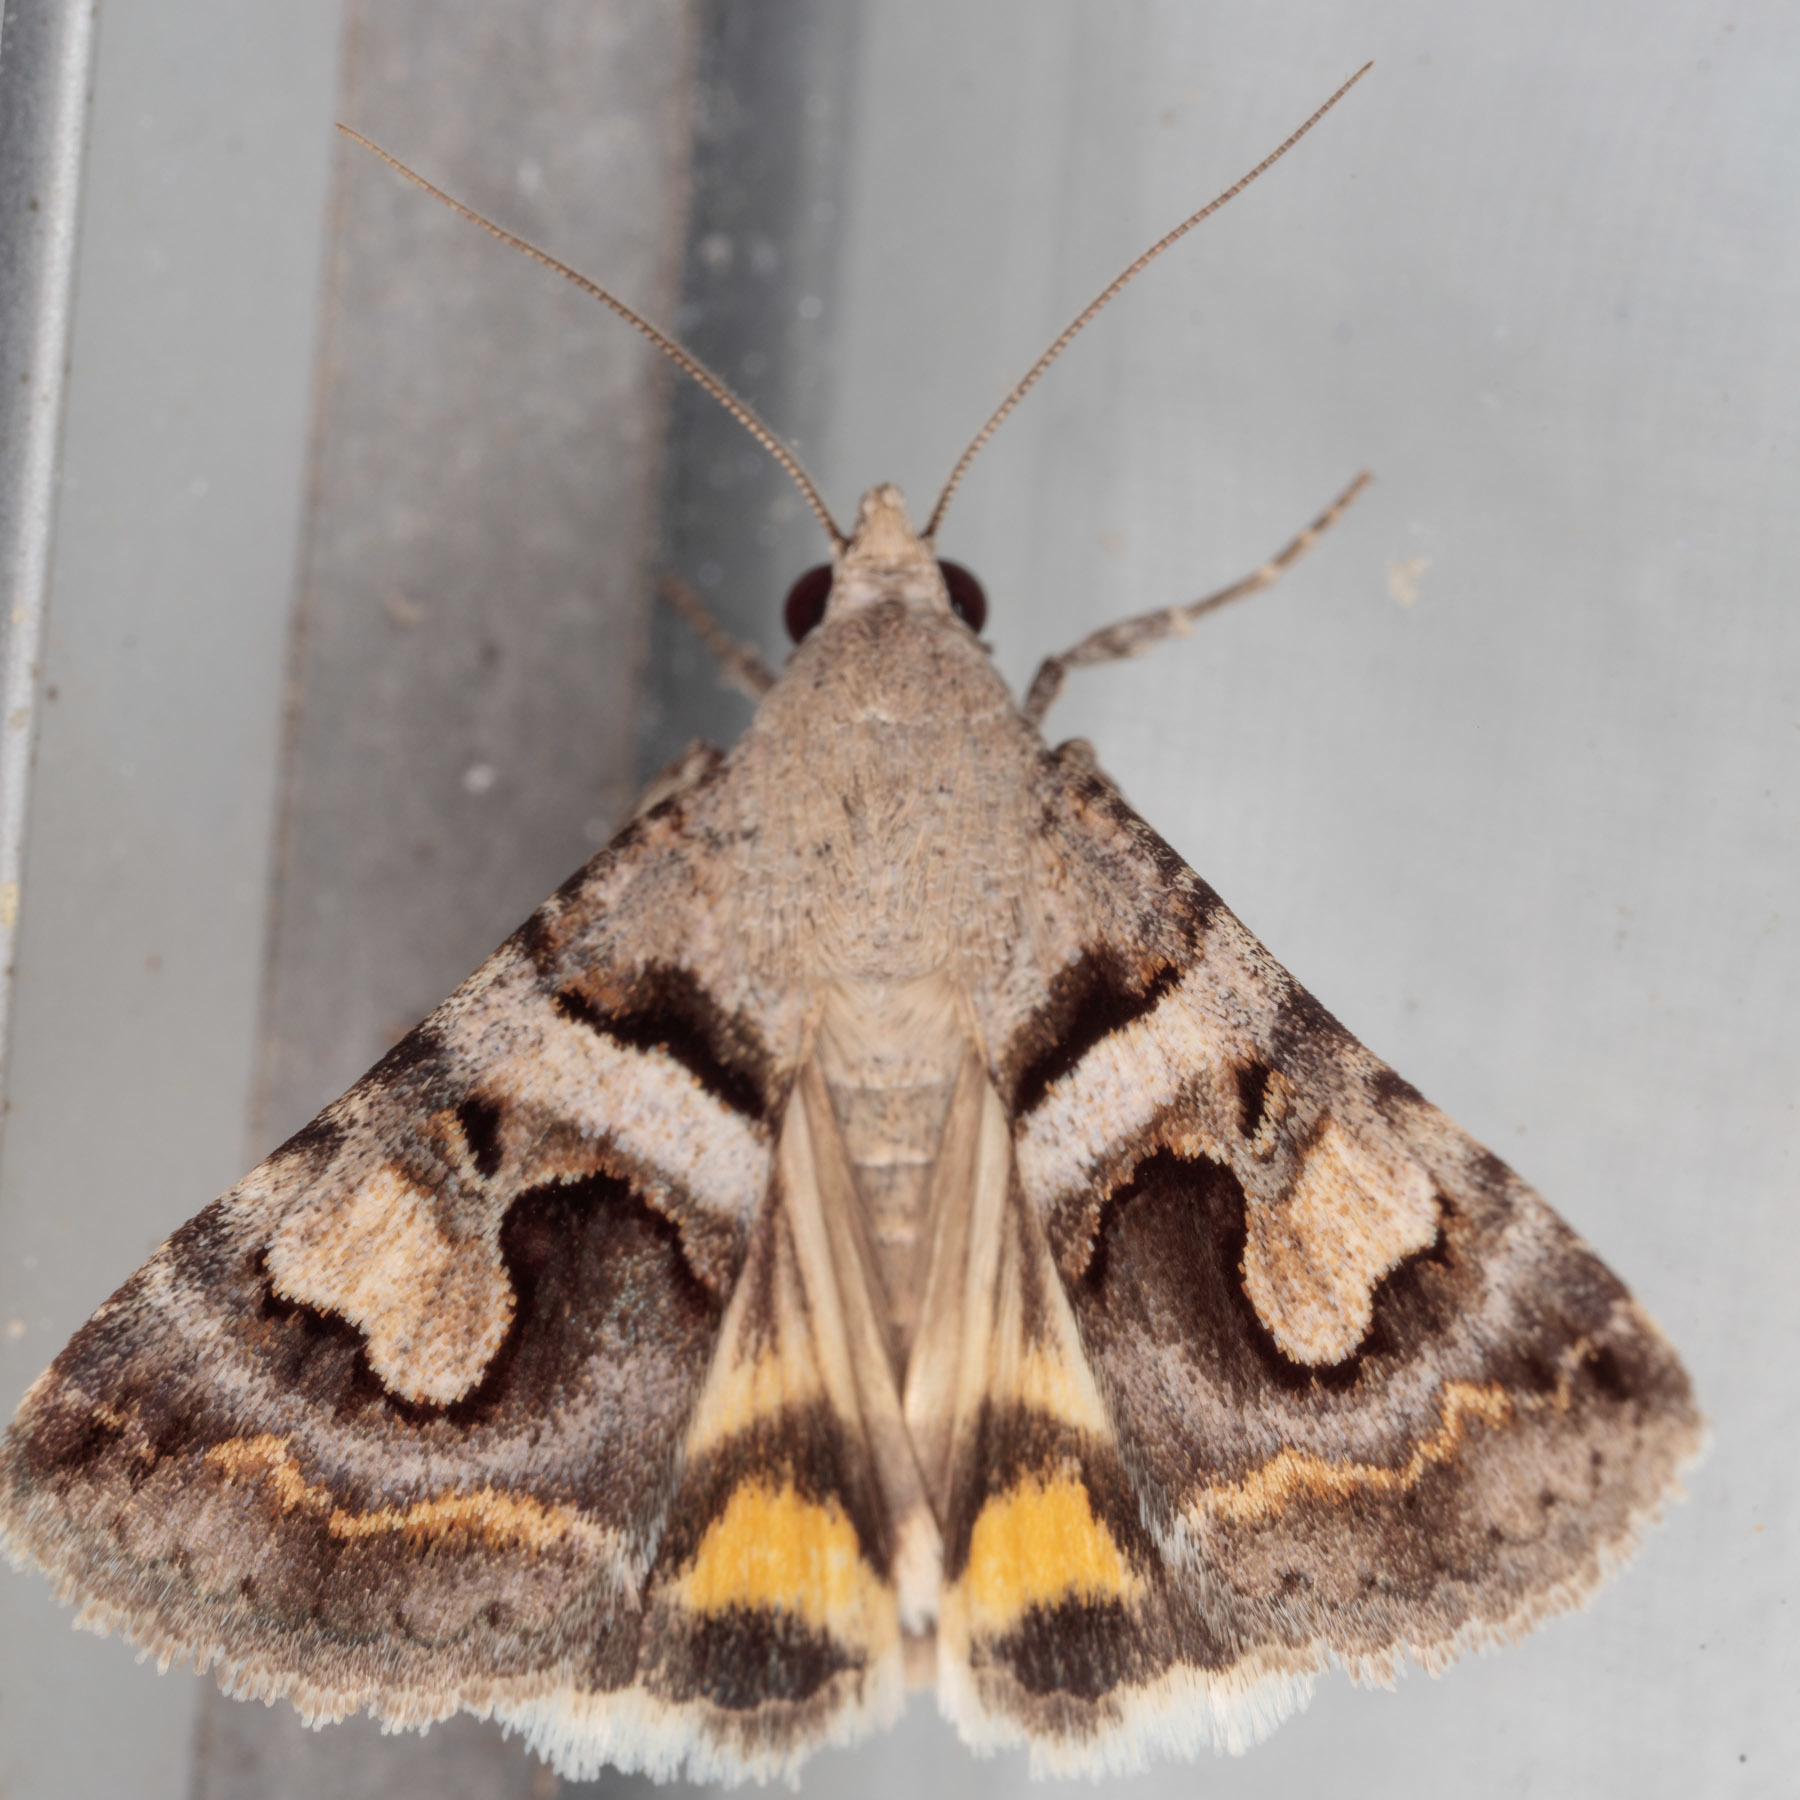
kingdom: Animalia
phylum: Arthropoda
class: Insecta
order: Lepidoptera
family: Erebidae
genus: Bulia
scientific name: Bulia
